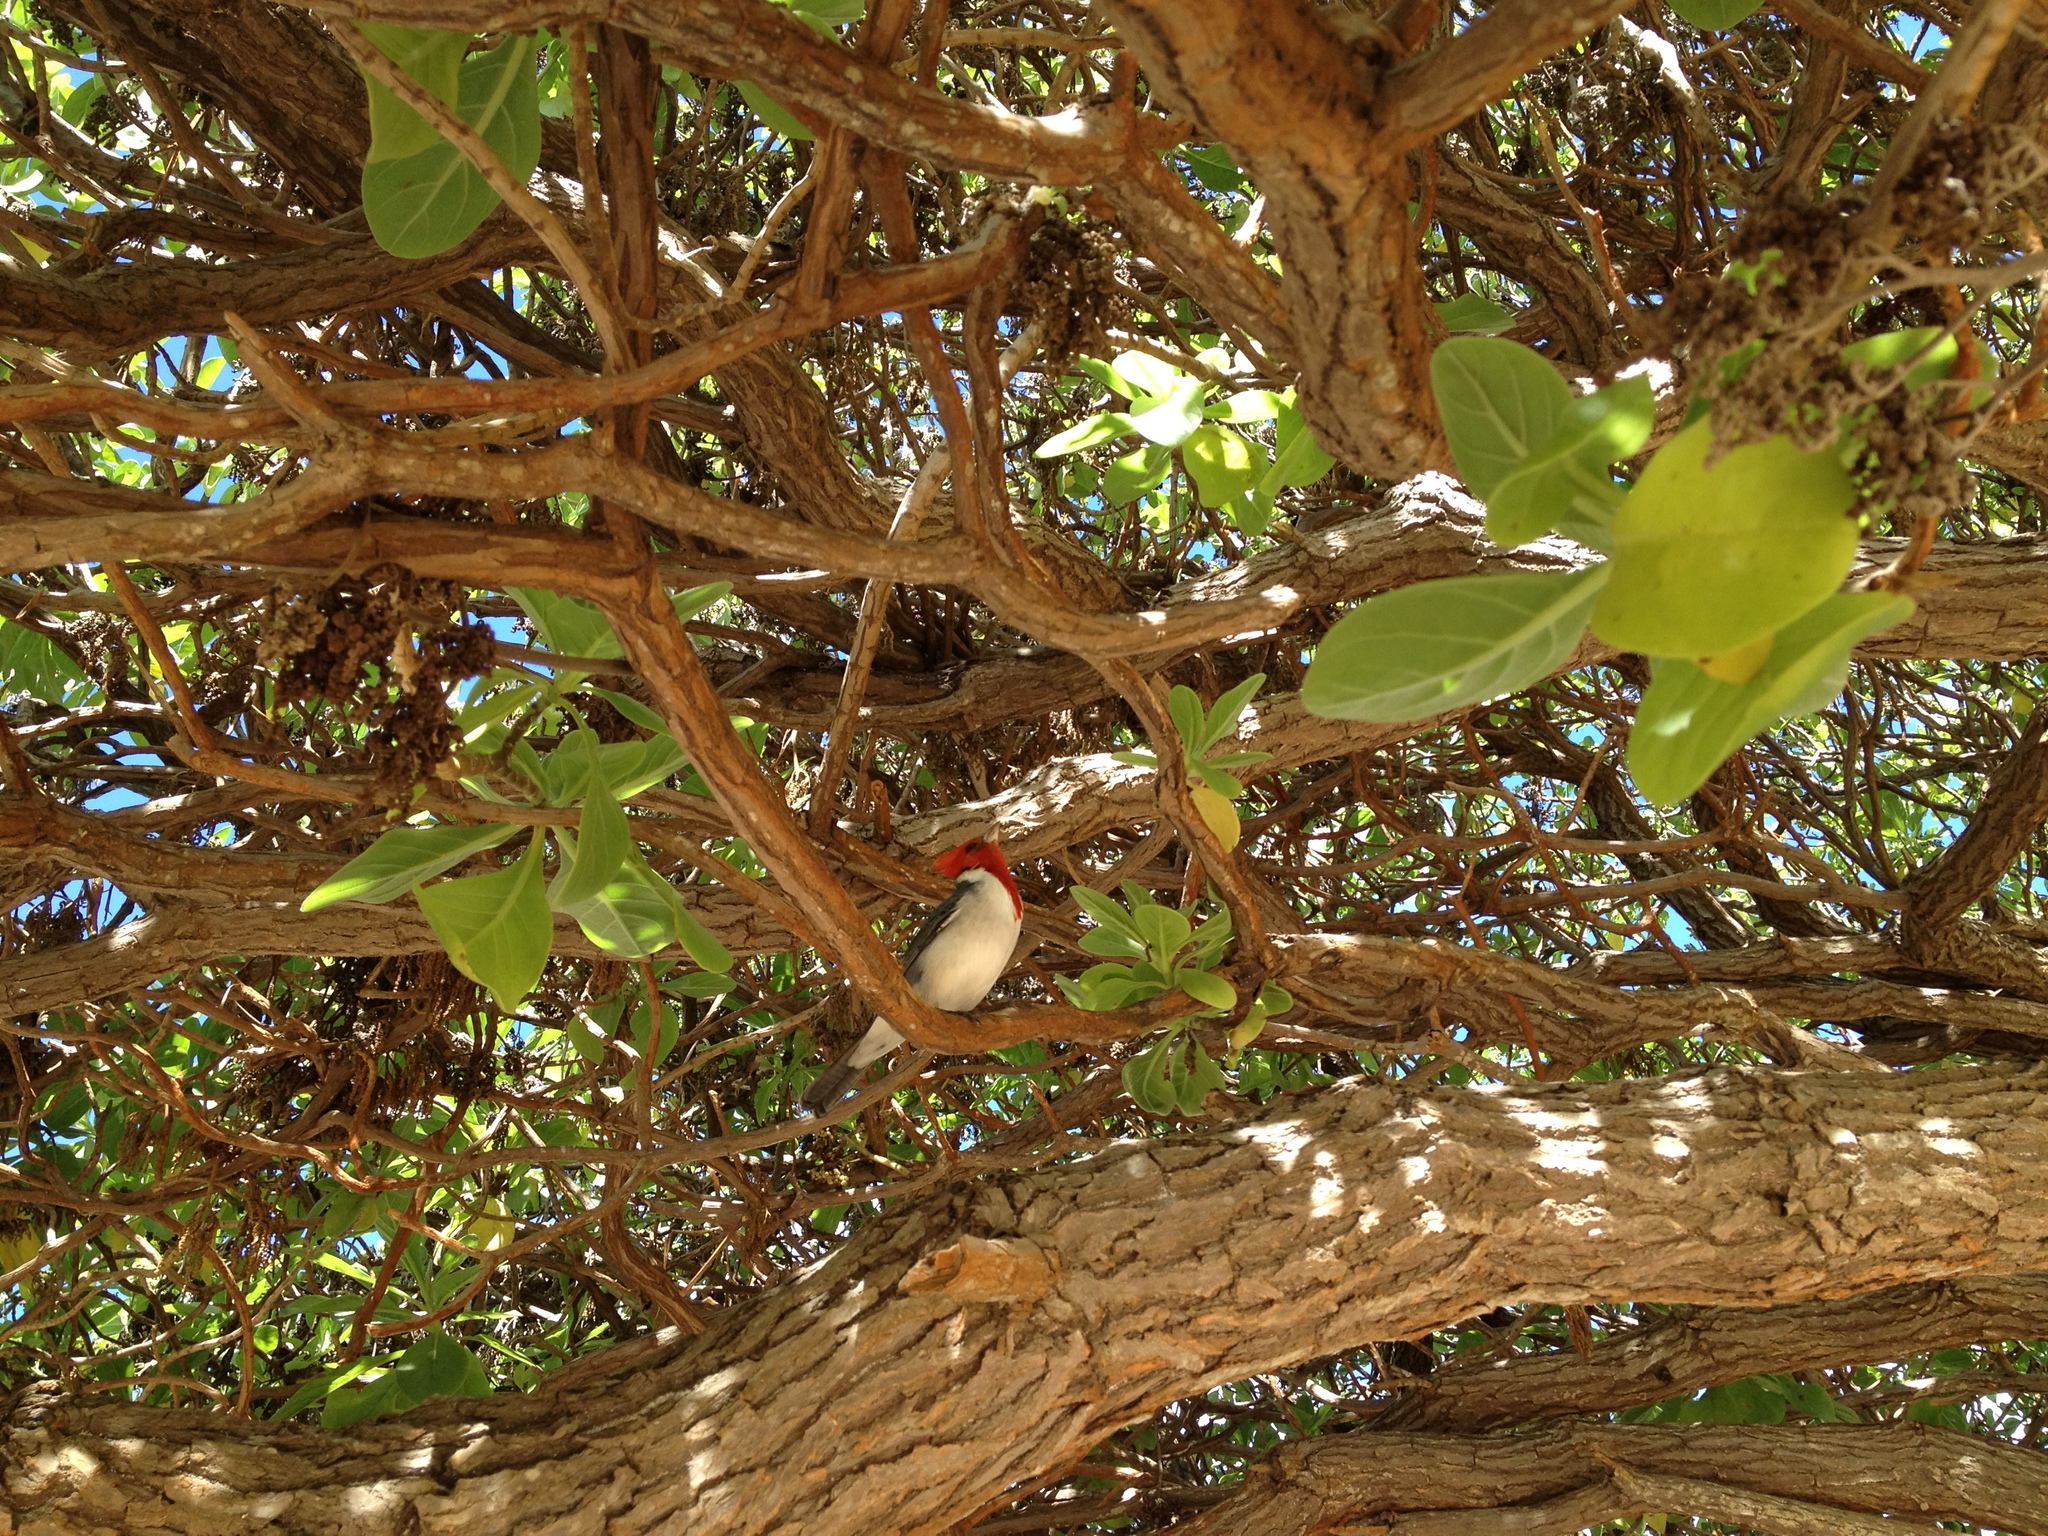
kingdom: Animalia
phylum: Chordata
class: Aves
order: Passeriformes
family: Thraupidae
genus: Paroaria
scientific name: Paroaria coronata
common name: Red-crested cardinal
